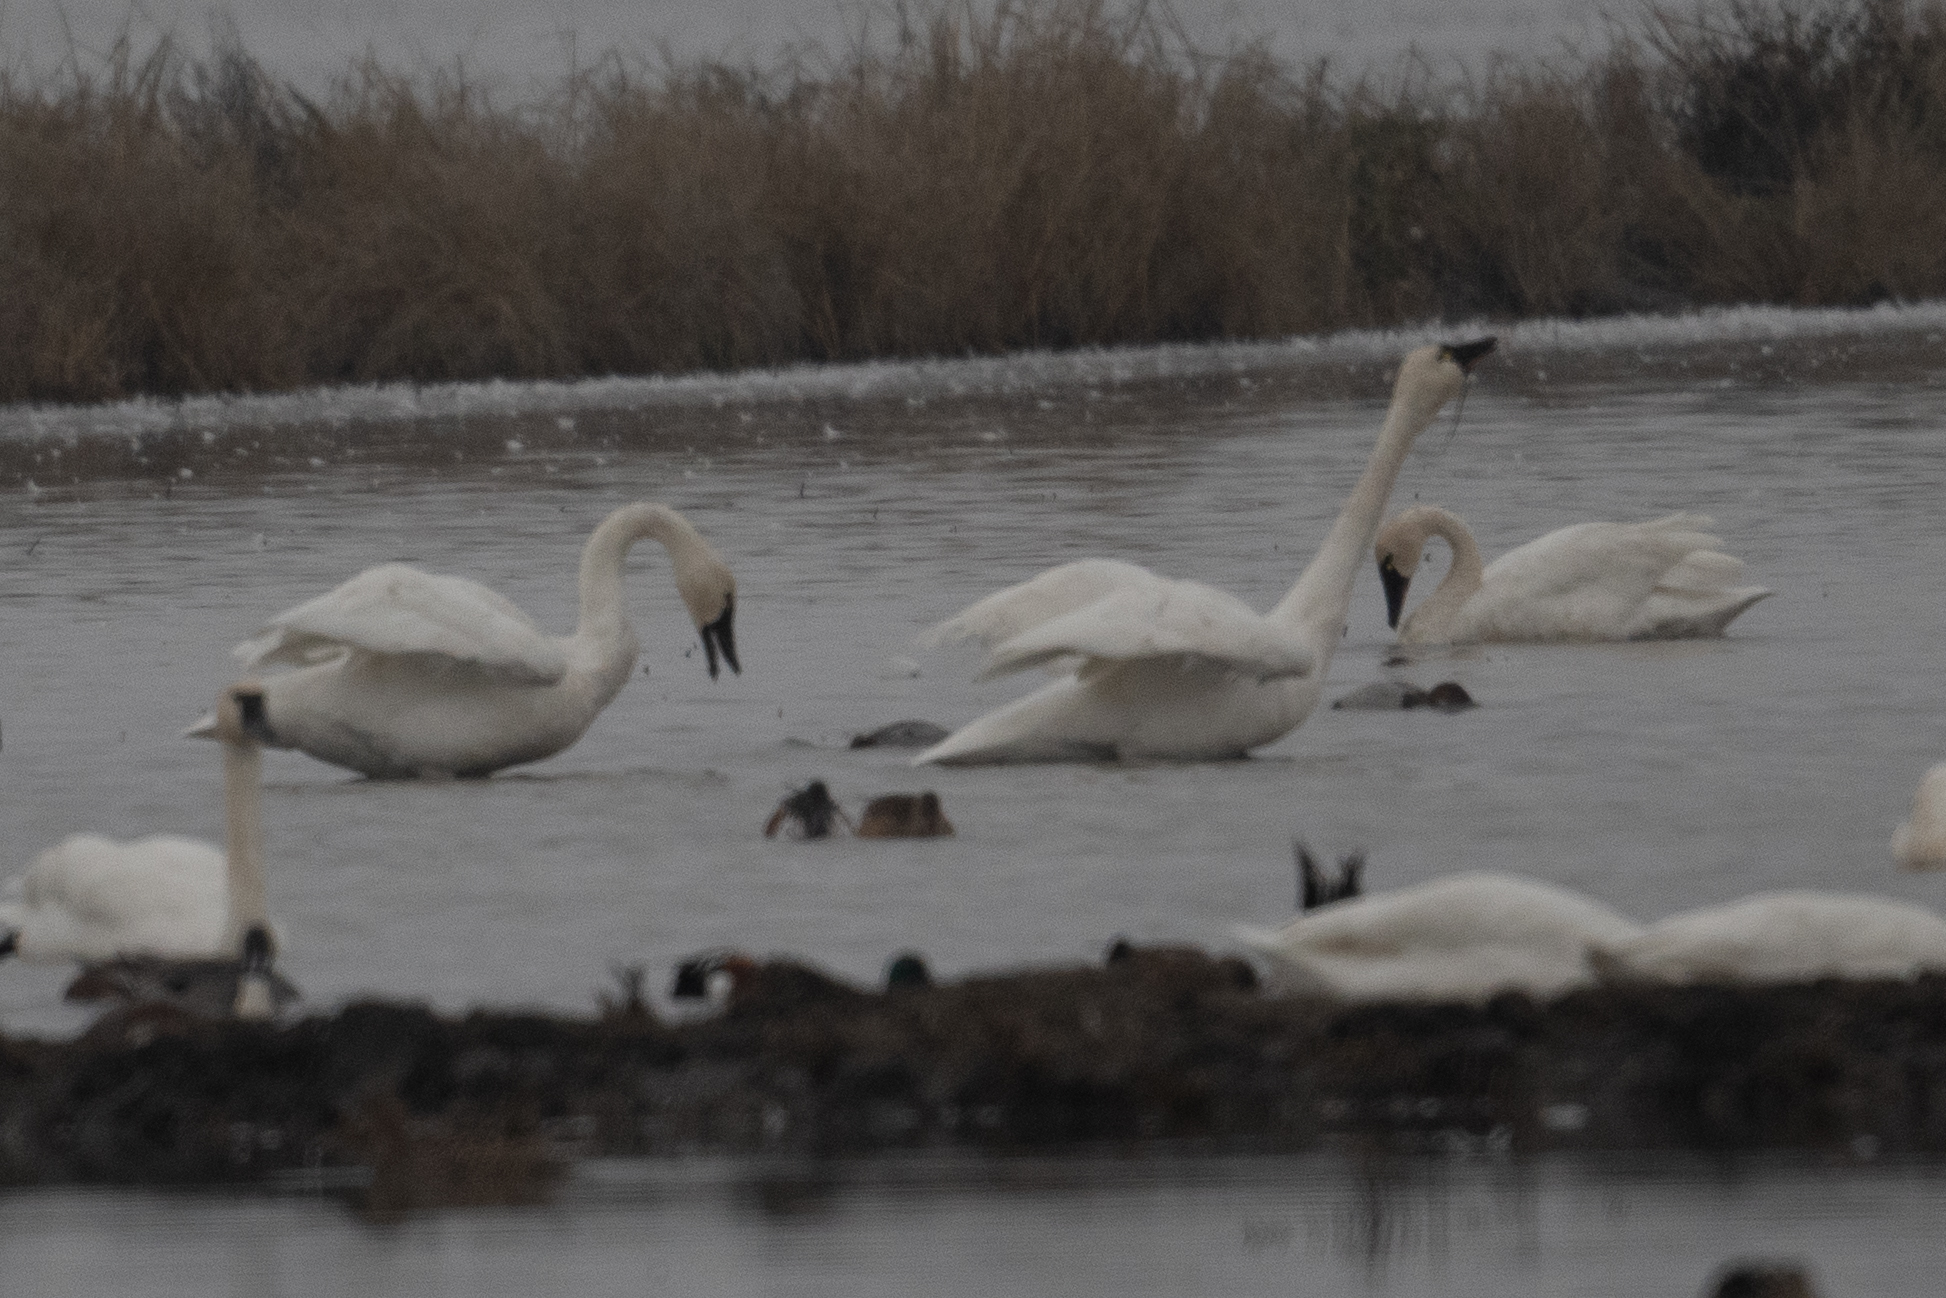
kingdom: Animalia
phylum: Chordata
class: Aves
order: Anseriformes
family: Anatidae
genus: Cygnus
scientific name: Cygnus columbianus
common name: Tundra swan
